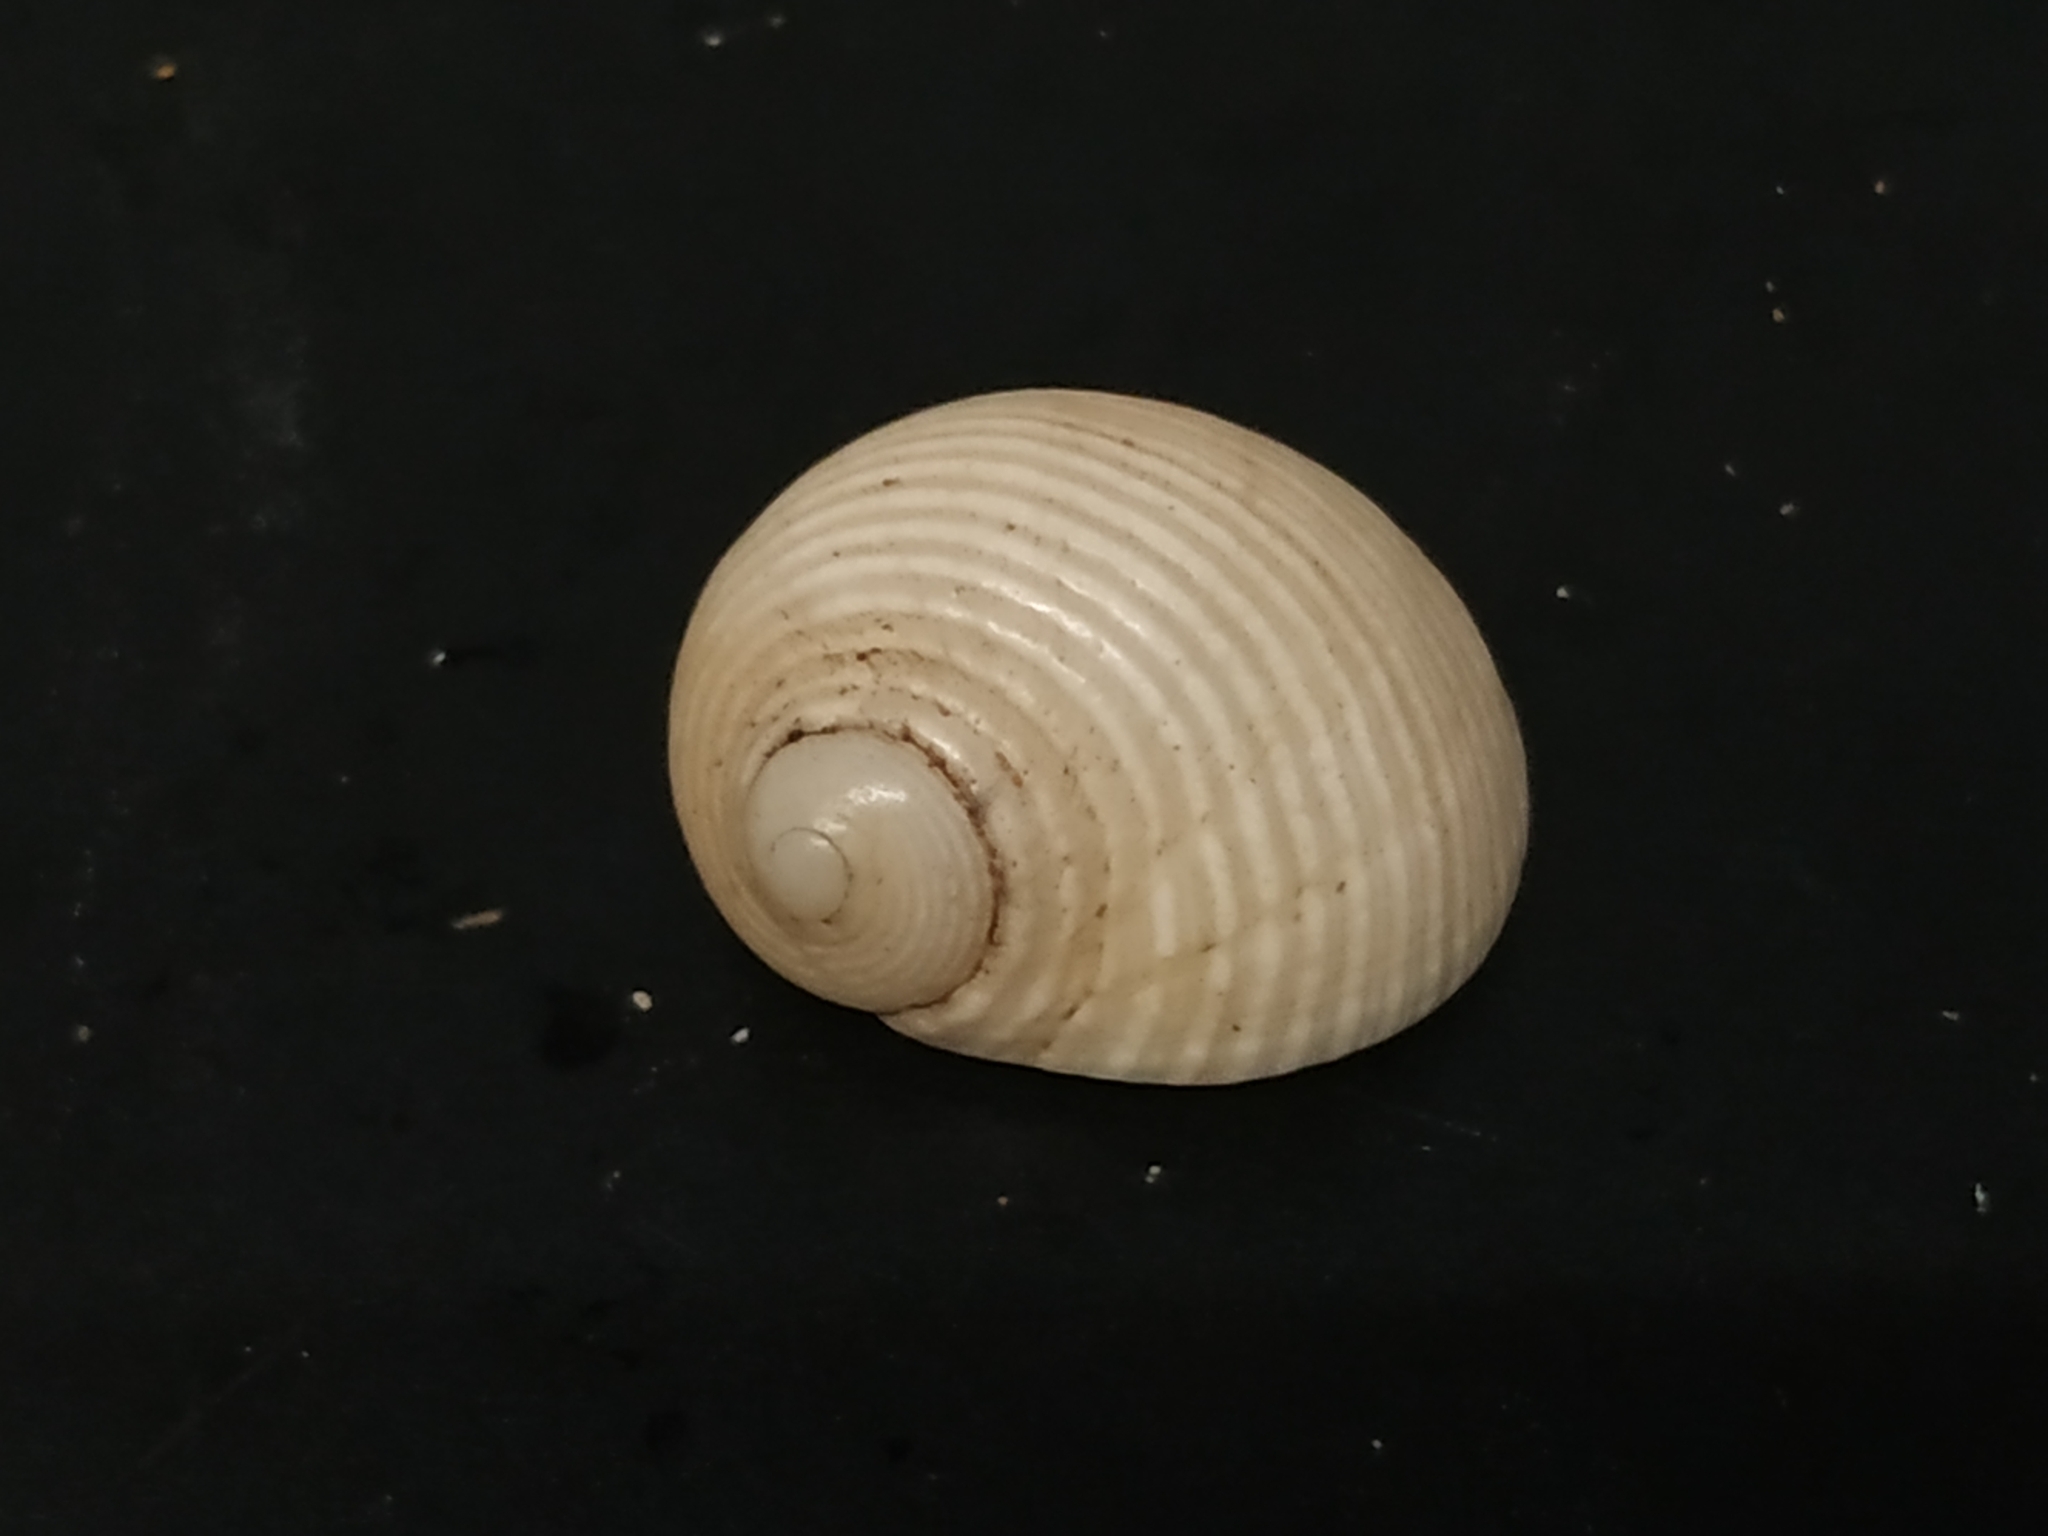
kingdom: Animalia
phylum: Mollusca
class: Gastropoda
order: Cycloneritida
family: Neritidae
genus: Nerita
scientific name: Nerita plicata
